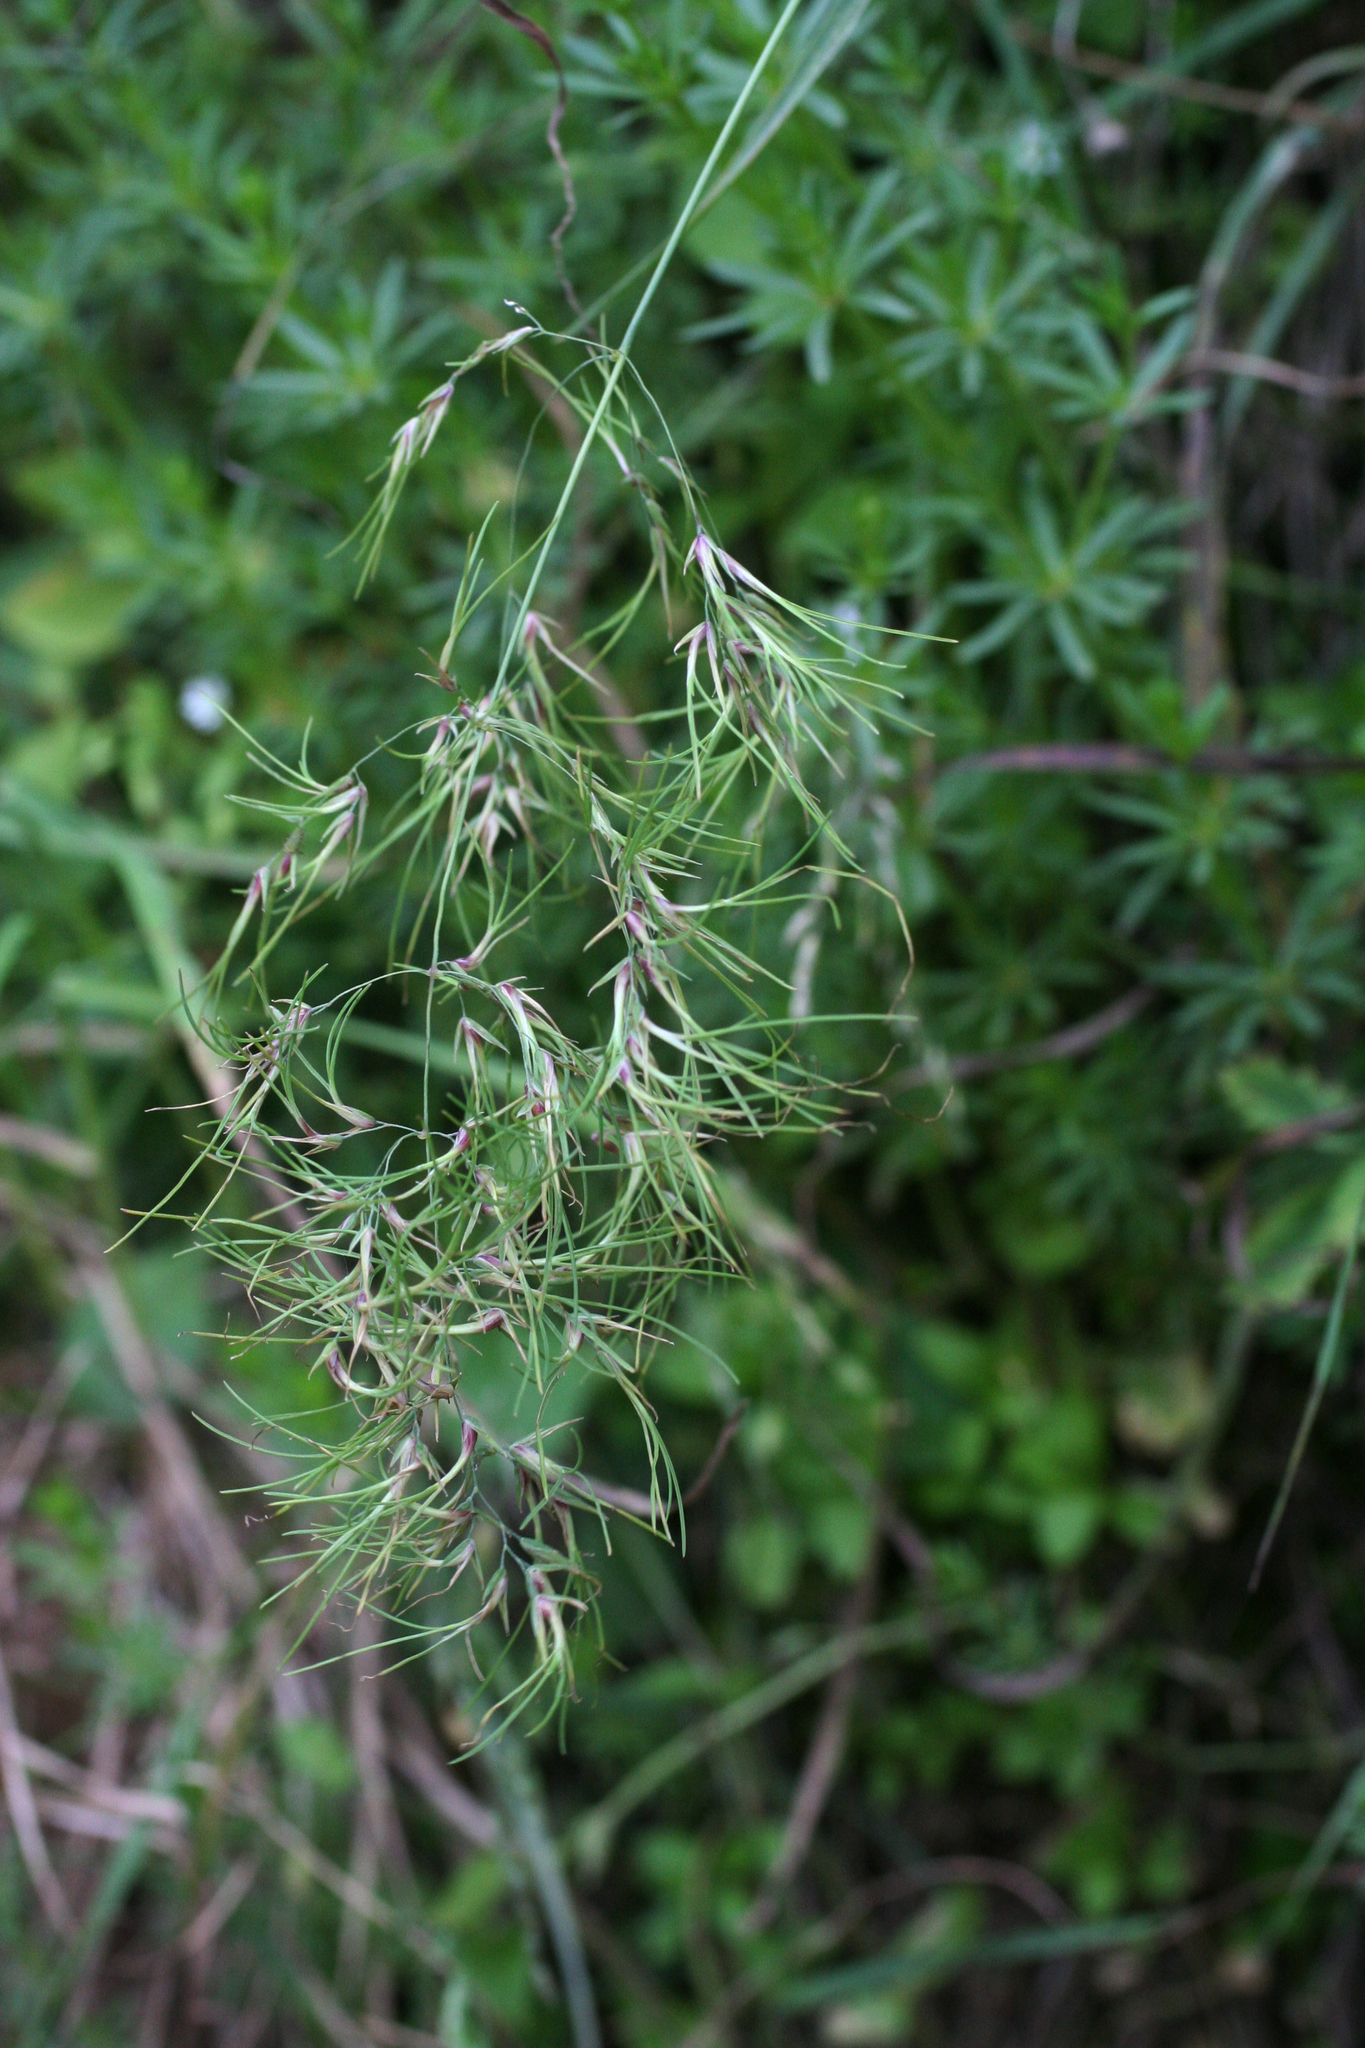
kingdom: Plantae
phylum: Tracheophyta
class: Liliopsida
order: Poales
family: Poaceae
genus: Poa
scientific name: Poa bulbosa
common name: Bulbous bluegrass
